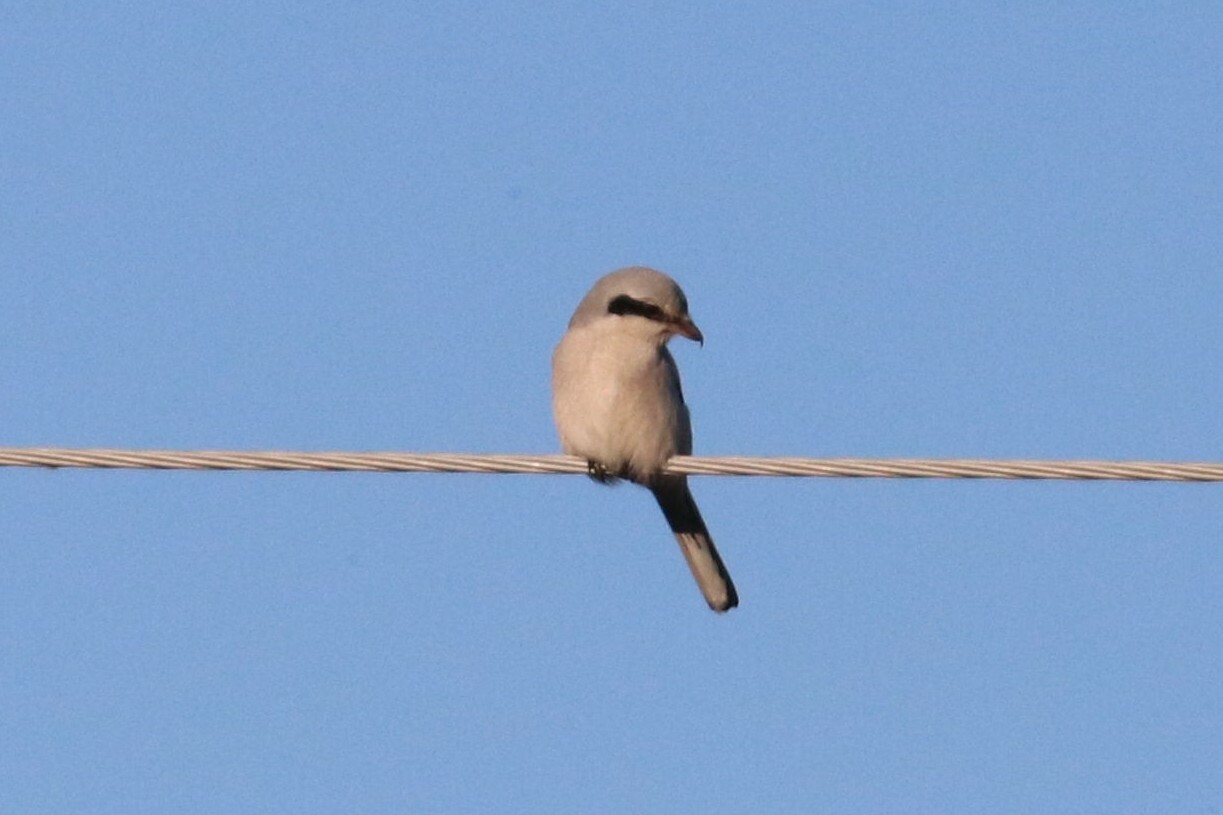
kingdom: Animalia
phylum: Chordata
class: Aves
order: Passeriformes
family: Laniidae
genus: Lanius
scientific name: Lanius excubitor
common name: Great grey shrike
